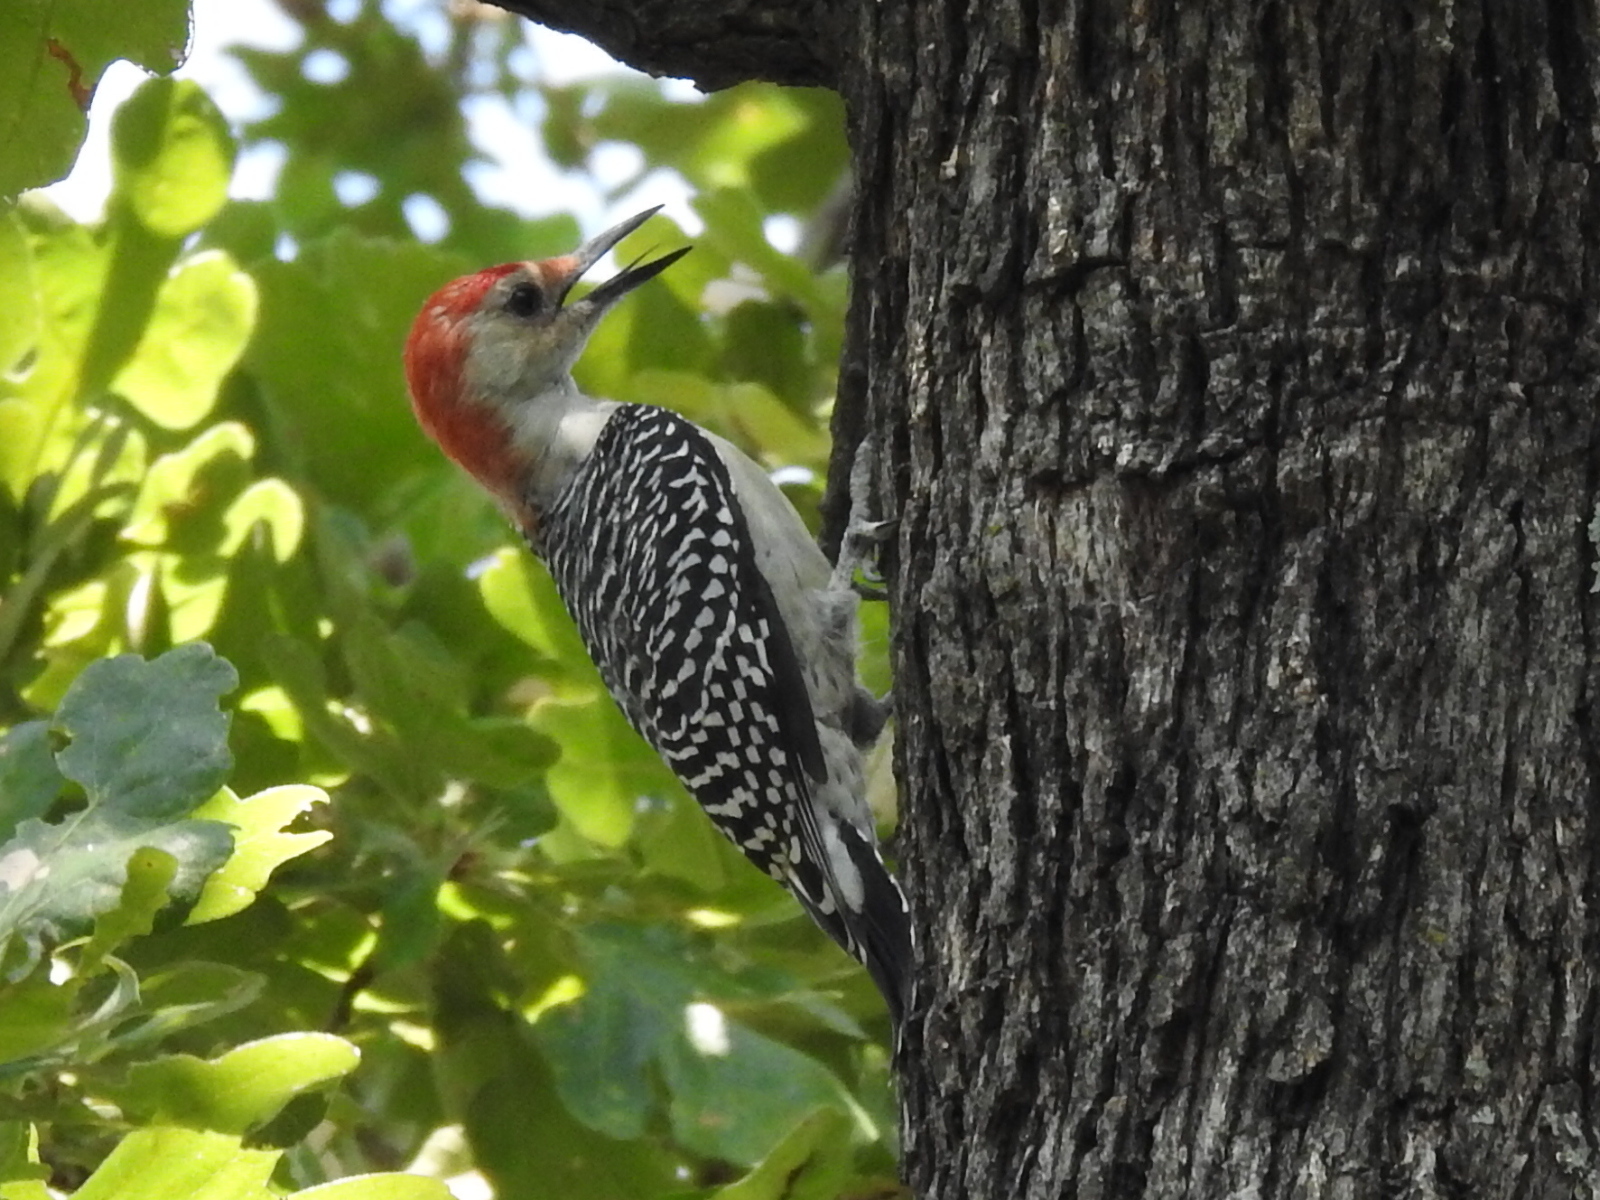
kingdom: Animalia
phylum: Chordata
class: Aves
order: Piciformes
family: Picidae
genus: Melanerpes
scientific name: Melanerpes carolinus
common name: Red-bellied woodpecker
